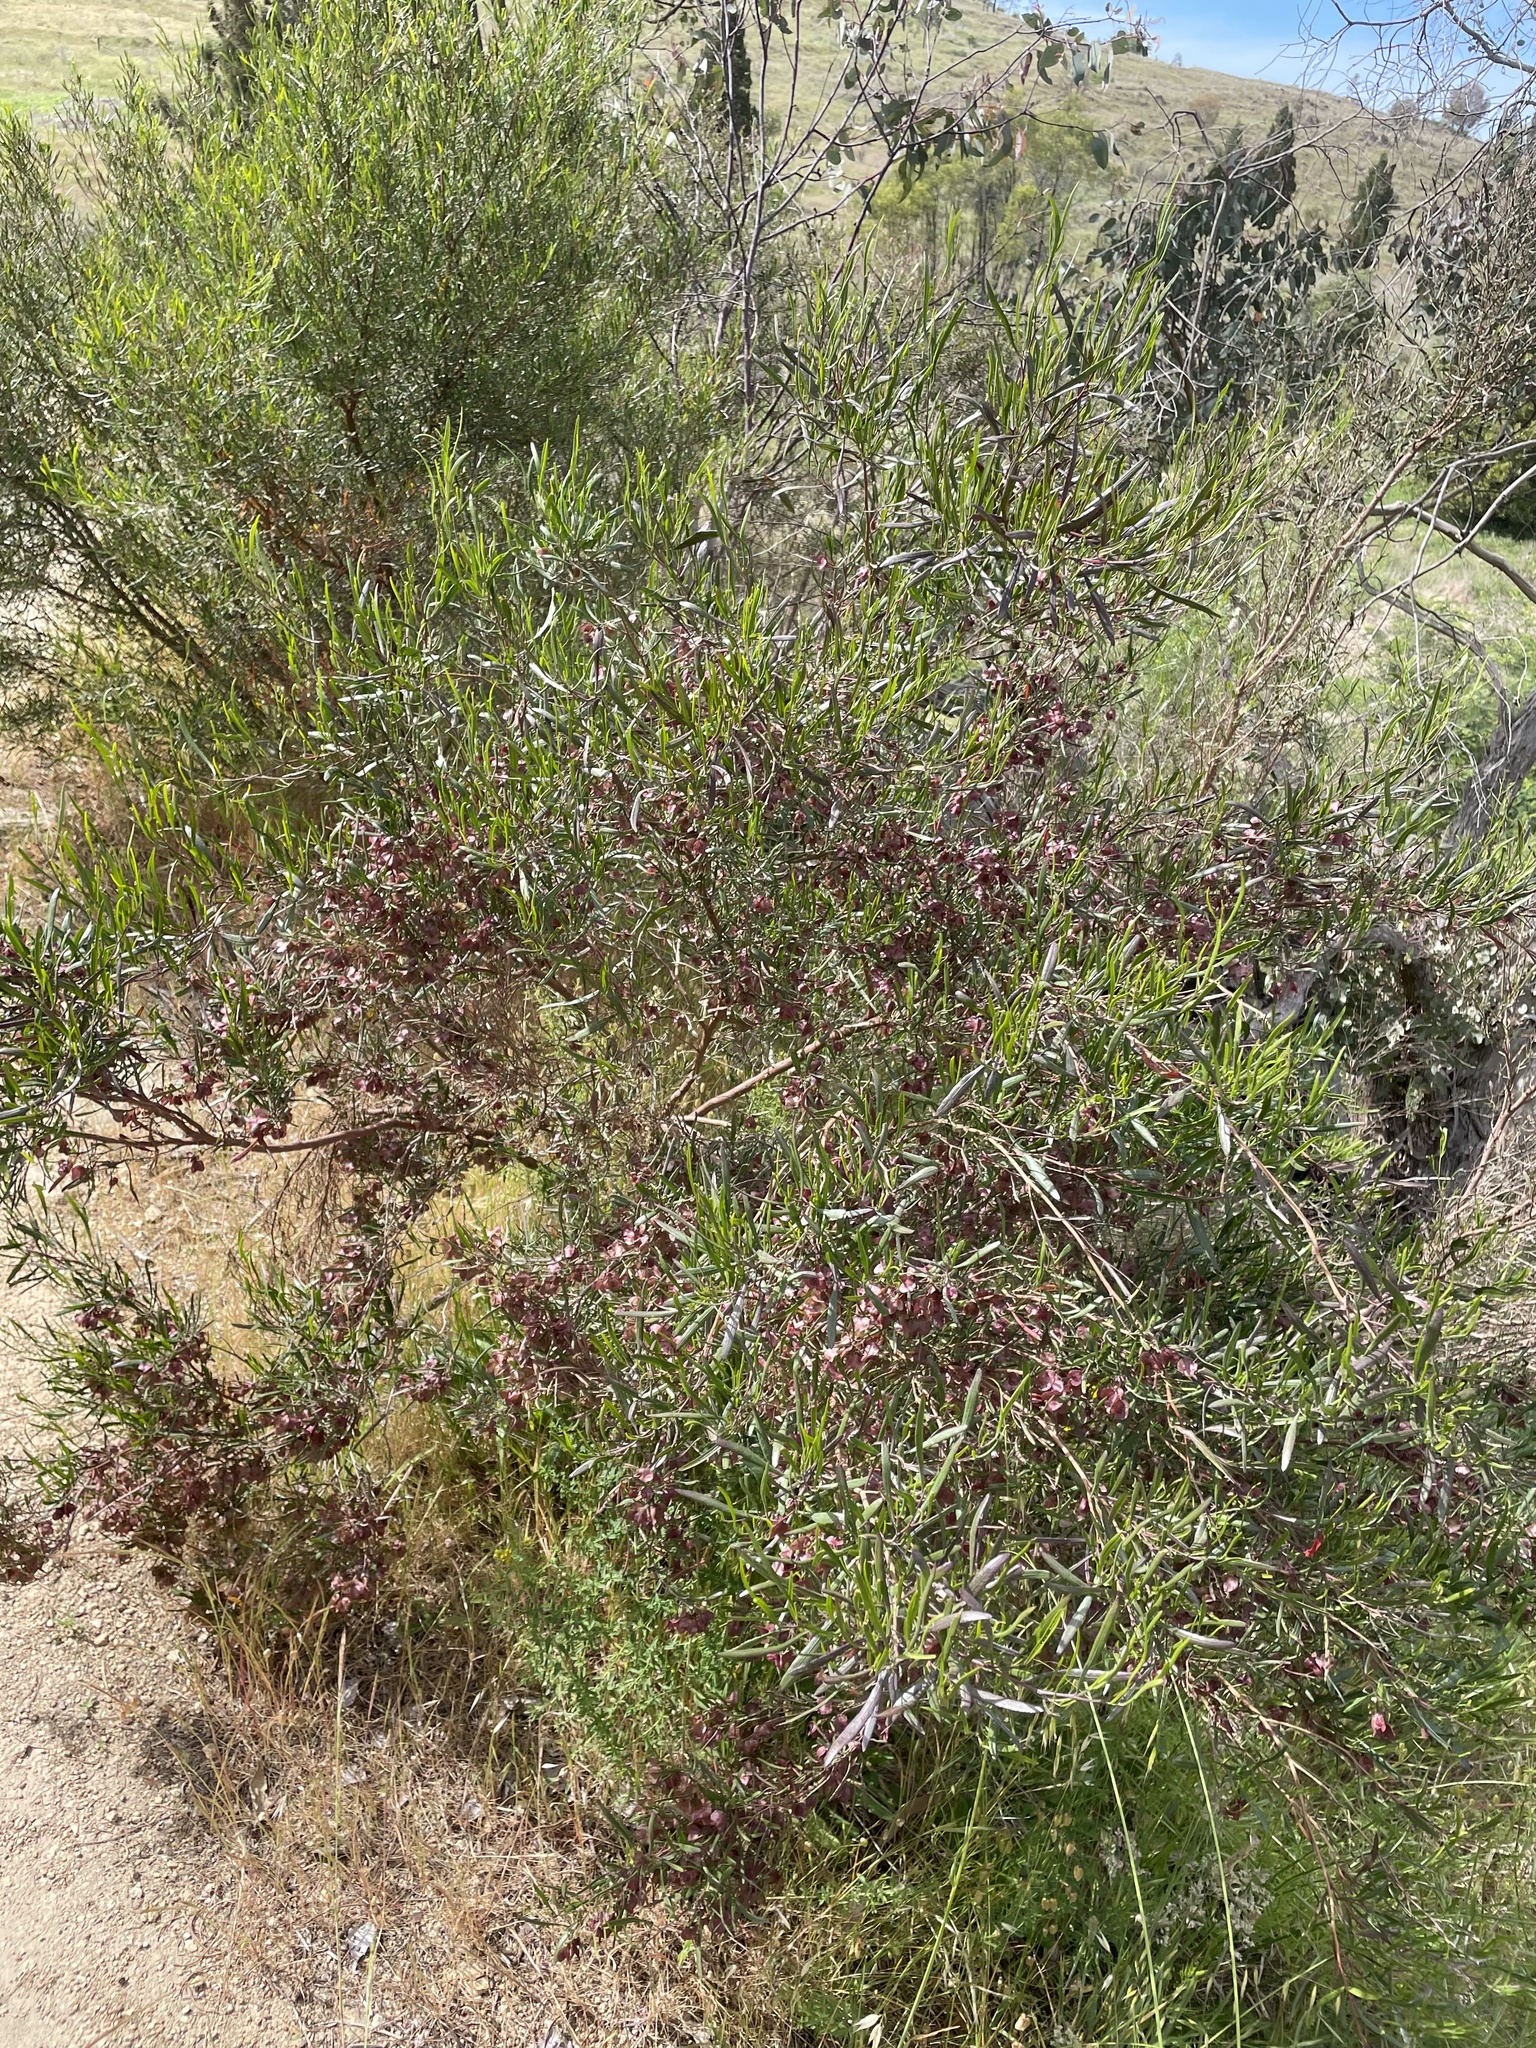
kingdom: Plantae
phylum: Tracheophyta
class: Magnoliopsida
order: Sapindales
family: Sapindaceae
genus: Dodonaea
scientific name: Dodonaea viscosa
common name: Hopbush
